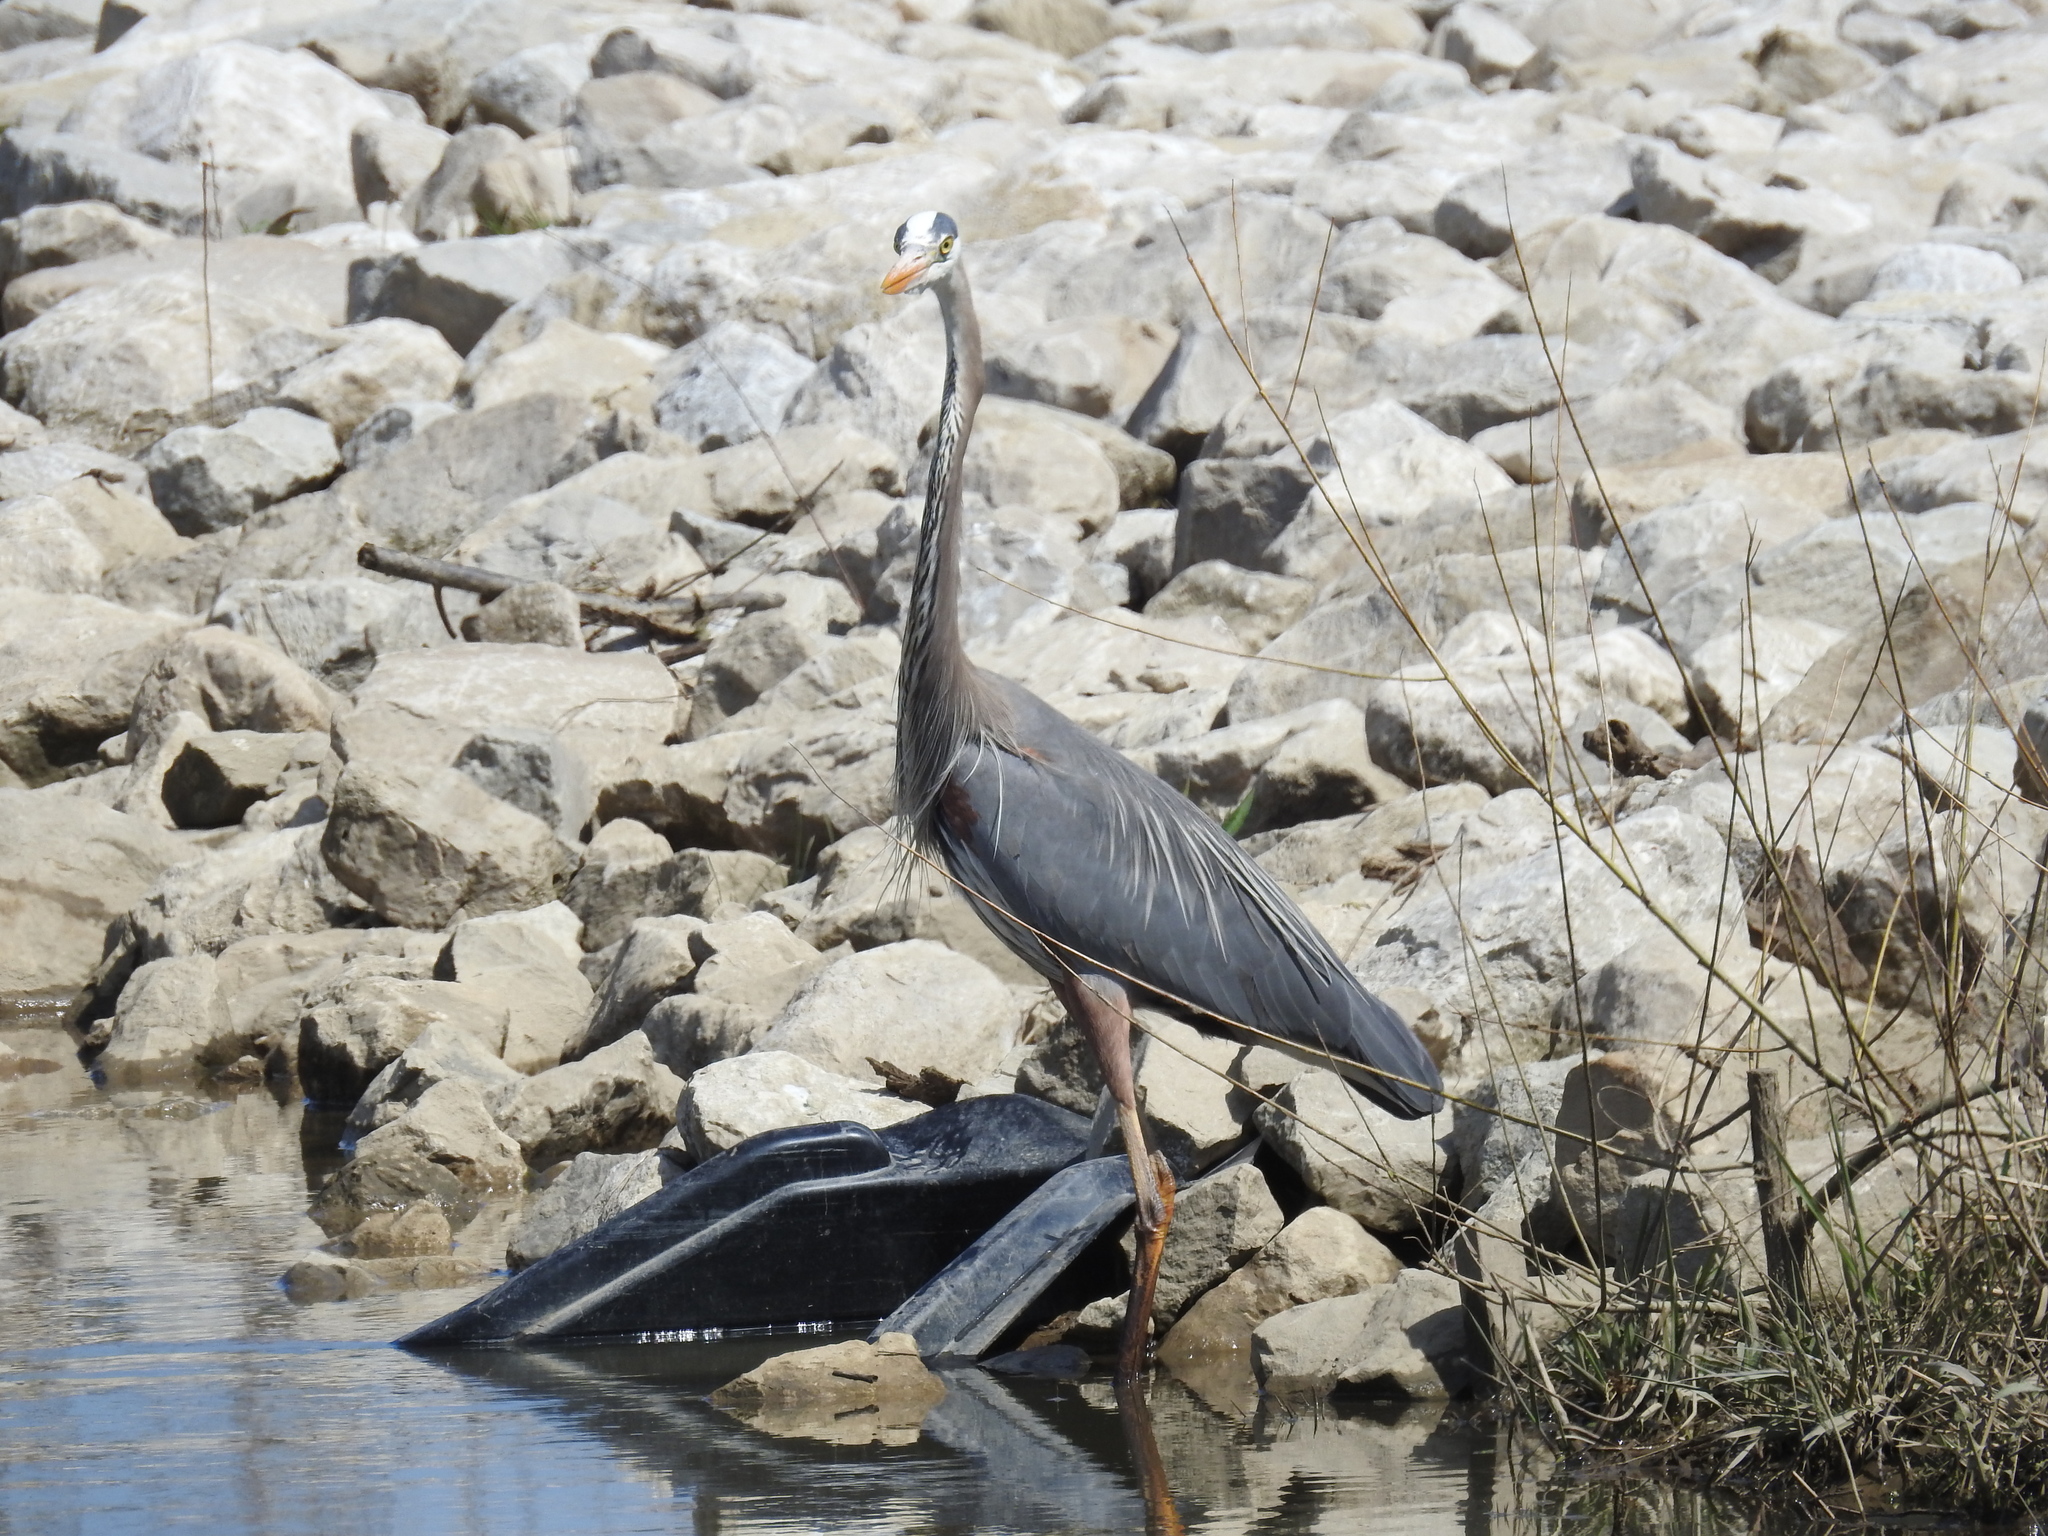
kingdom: Animalia
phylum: Chordata
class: Aves
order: Pelecaniformes
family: Ardeidae
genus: Ardea
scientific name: Ardea herodias
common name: Great blue heron
